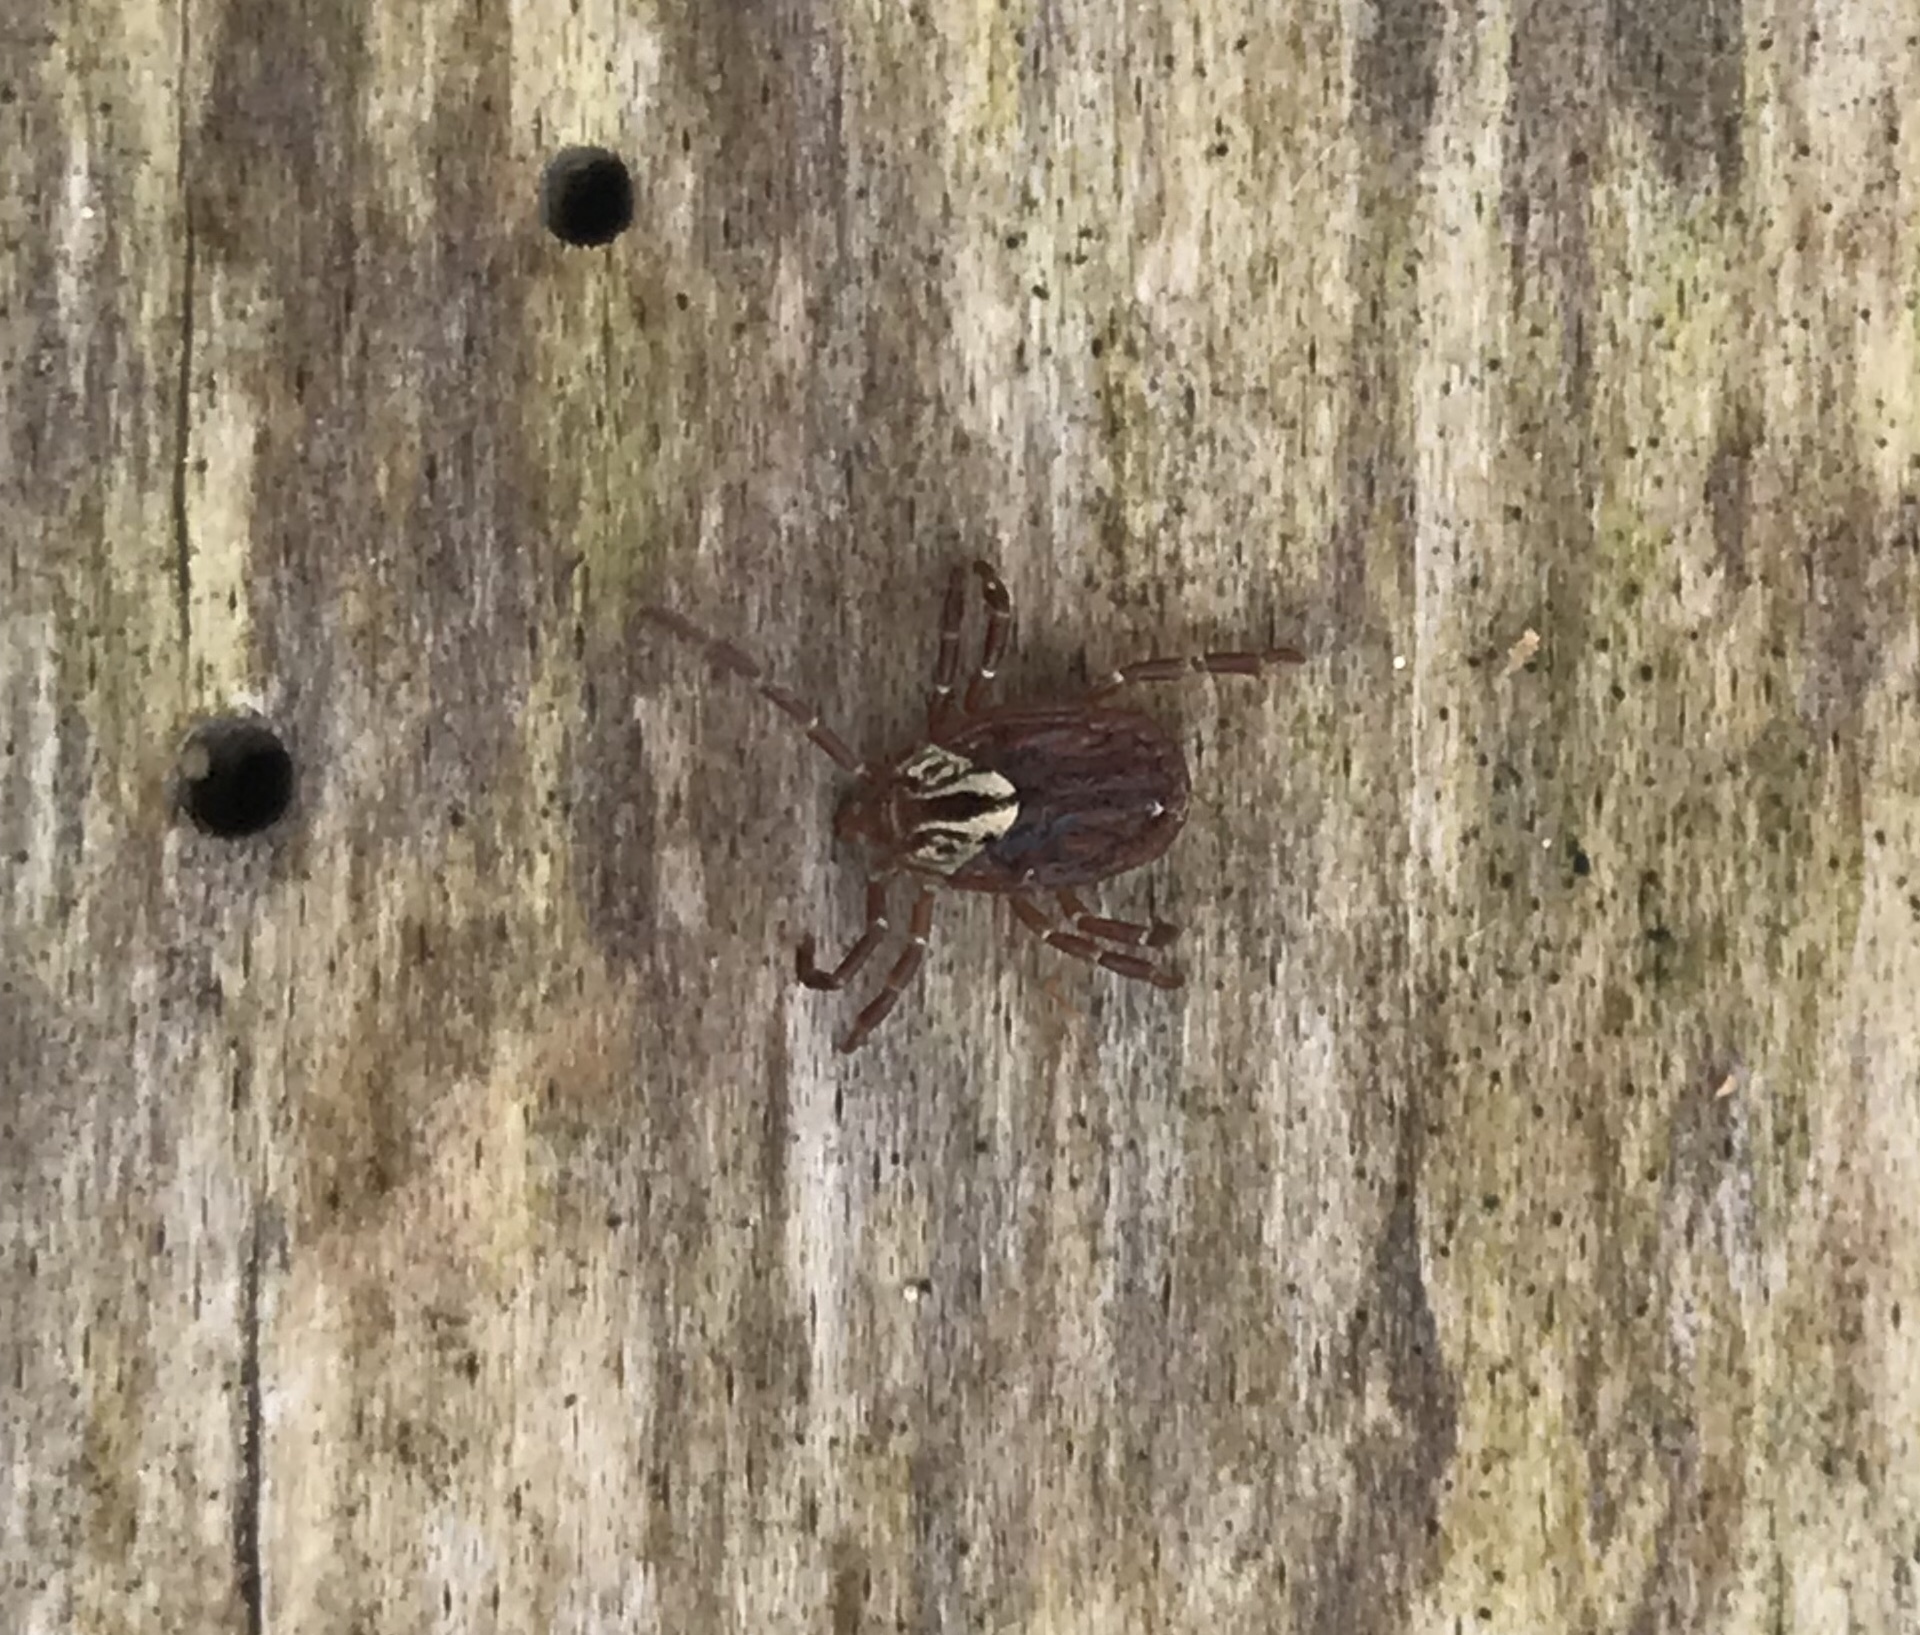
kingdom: Animalia
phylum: Arthropoda
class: Arachnida
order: Ixodida
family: Ixodidae
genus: Amblyomma
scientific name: Amblyomma maculatum
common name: Gulf coast tick
